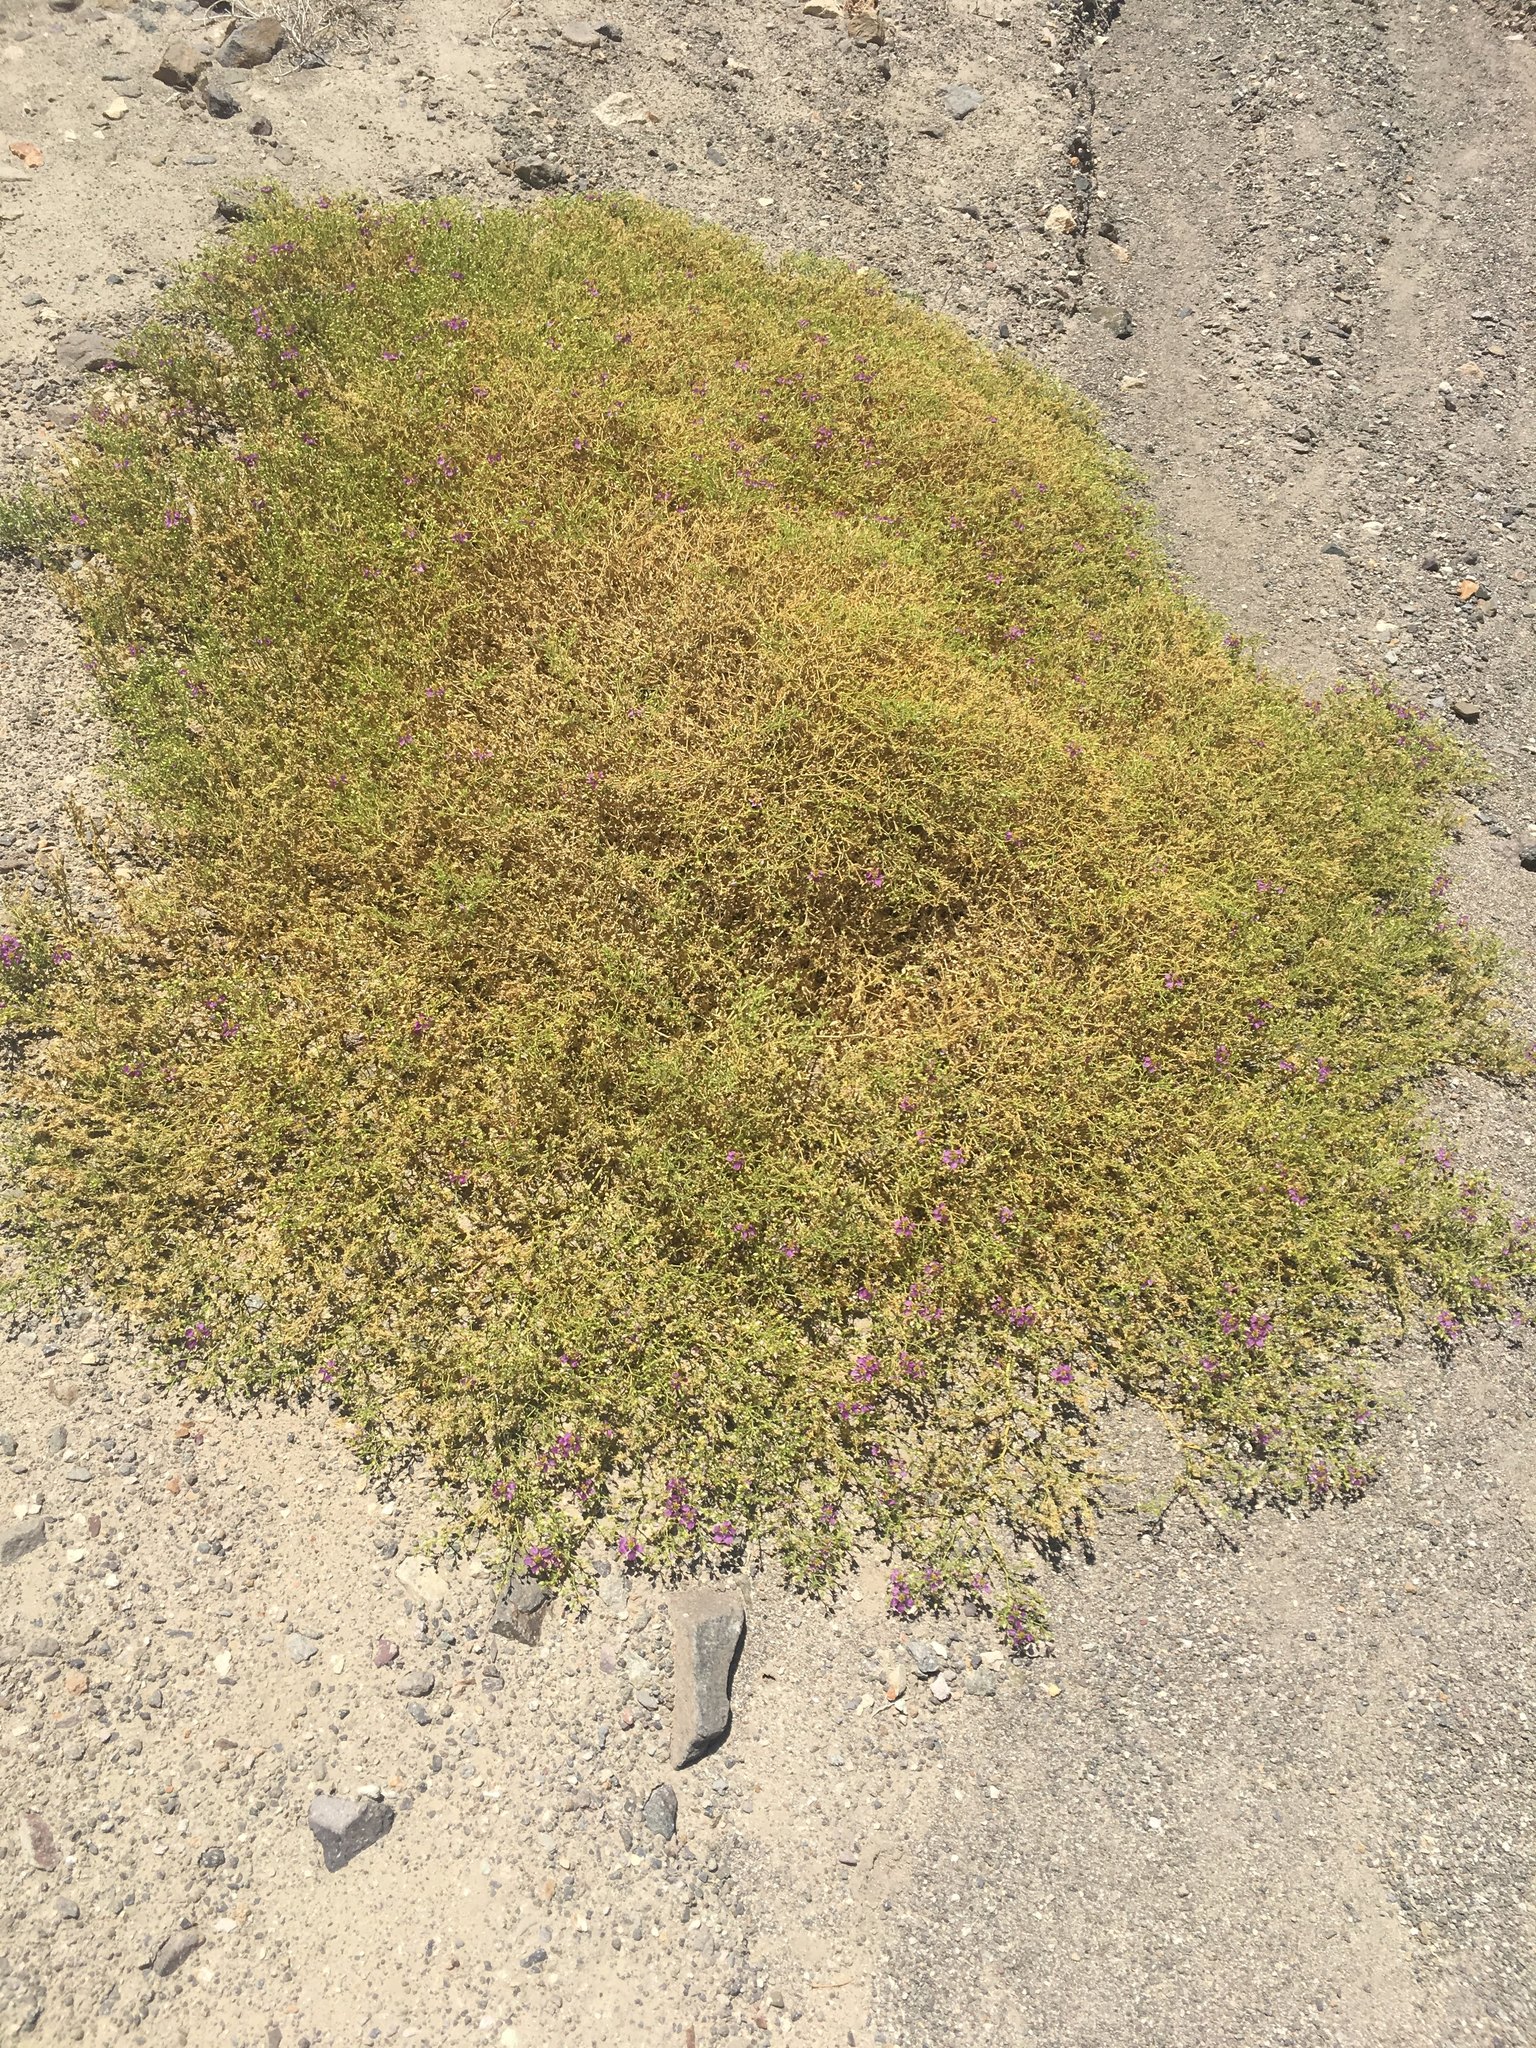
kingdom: Plantae
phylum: Tracheophyta
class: Magnoliopsida
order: Zygophyllales
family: Zygophyllaceae
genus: Fagonia
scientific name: Fagonia chilensis
